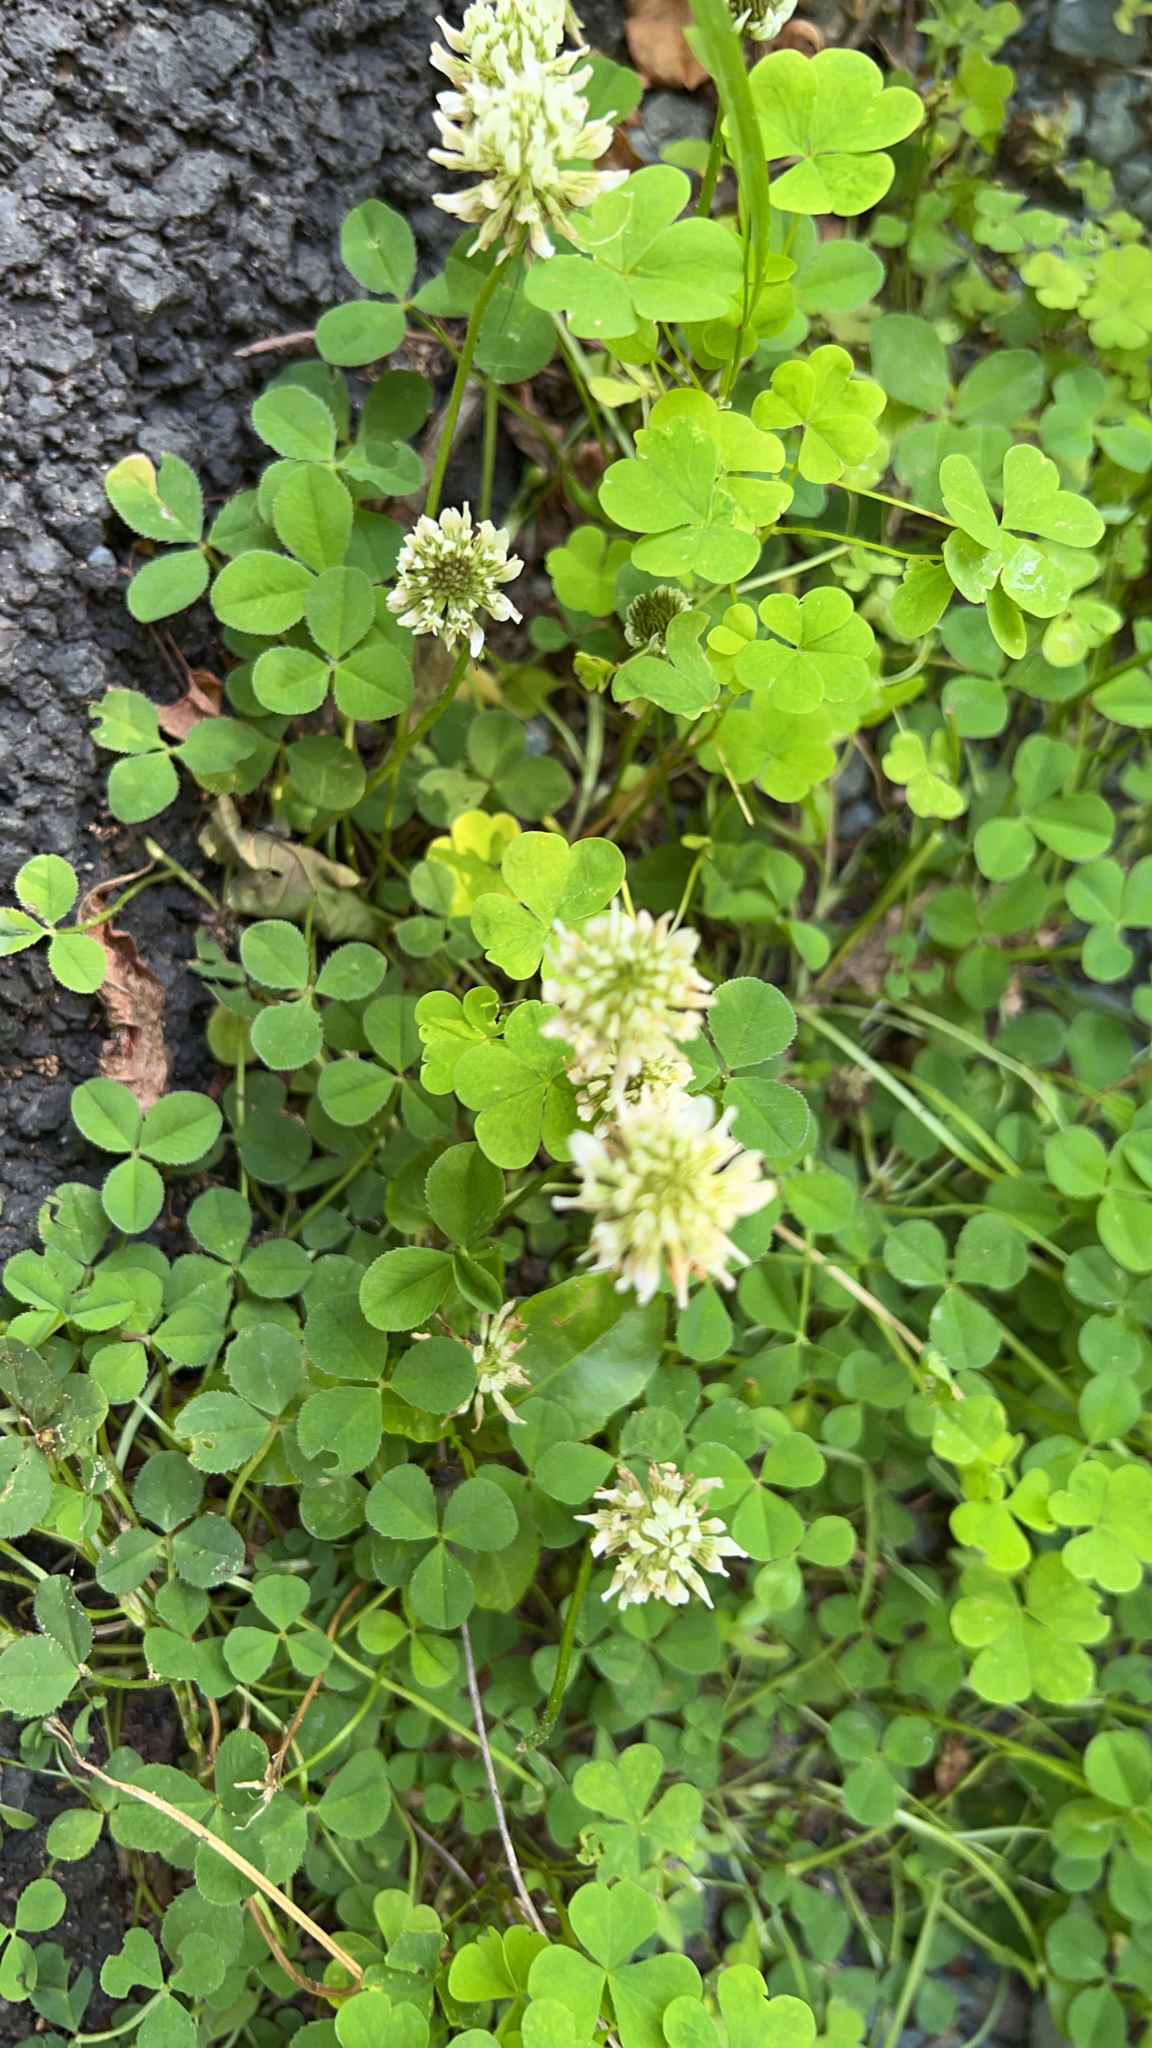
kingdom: Plantae
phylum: Tracheophyta
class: Magnoliopsida
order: Fabales
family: Fabaceae
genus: Trifolium
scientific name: Trifolium repens
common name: White clover
